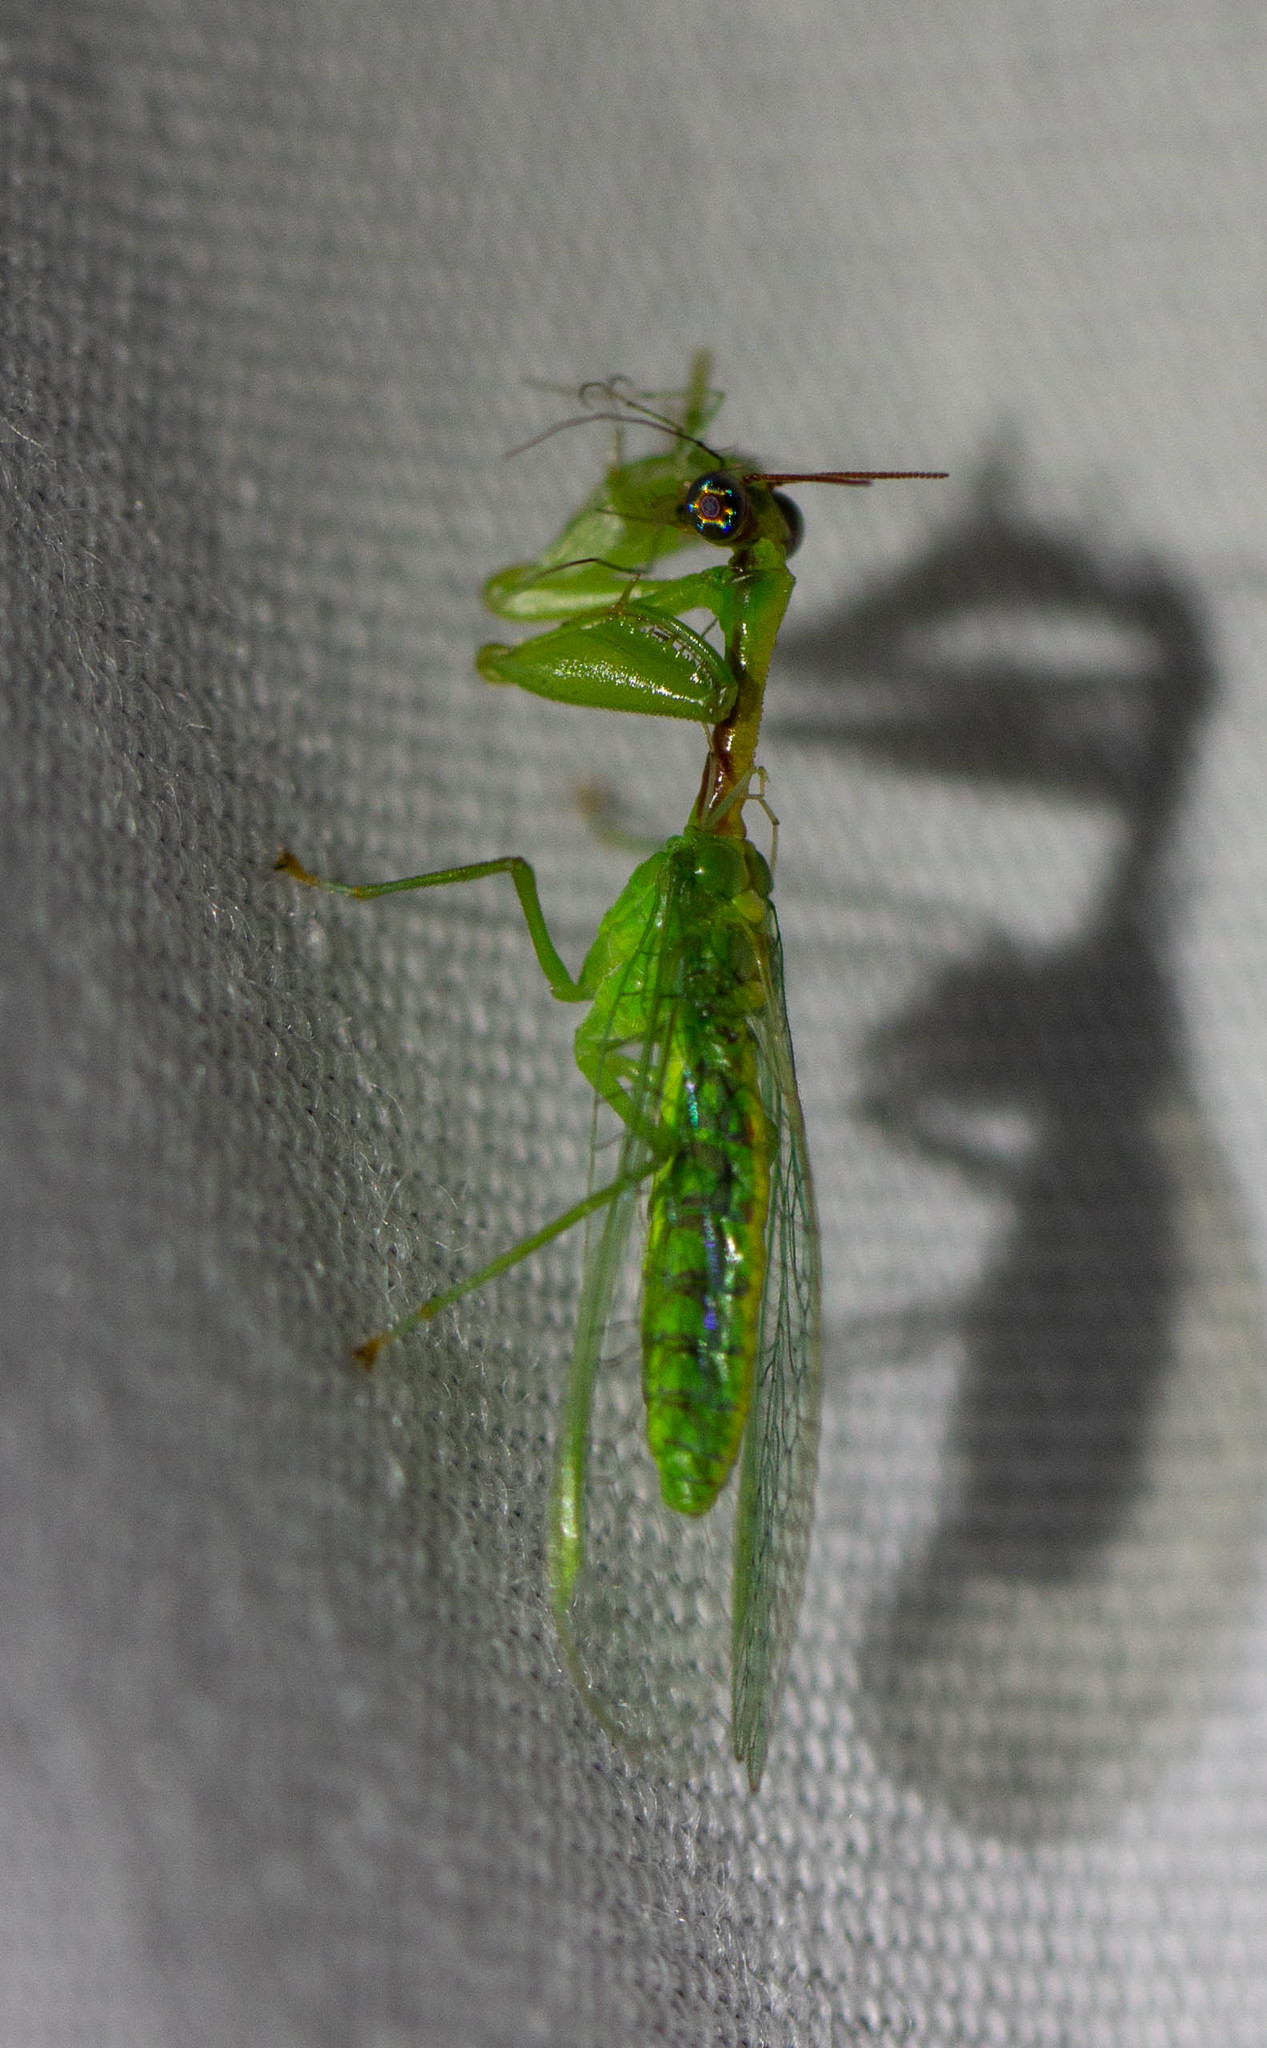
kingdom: Animalia
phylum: Arthropoda
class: Insecta
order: Neuroptera
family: Mantispidae
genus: Zeugomantispa
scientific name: Zeugomantispa minuta
